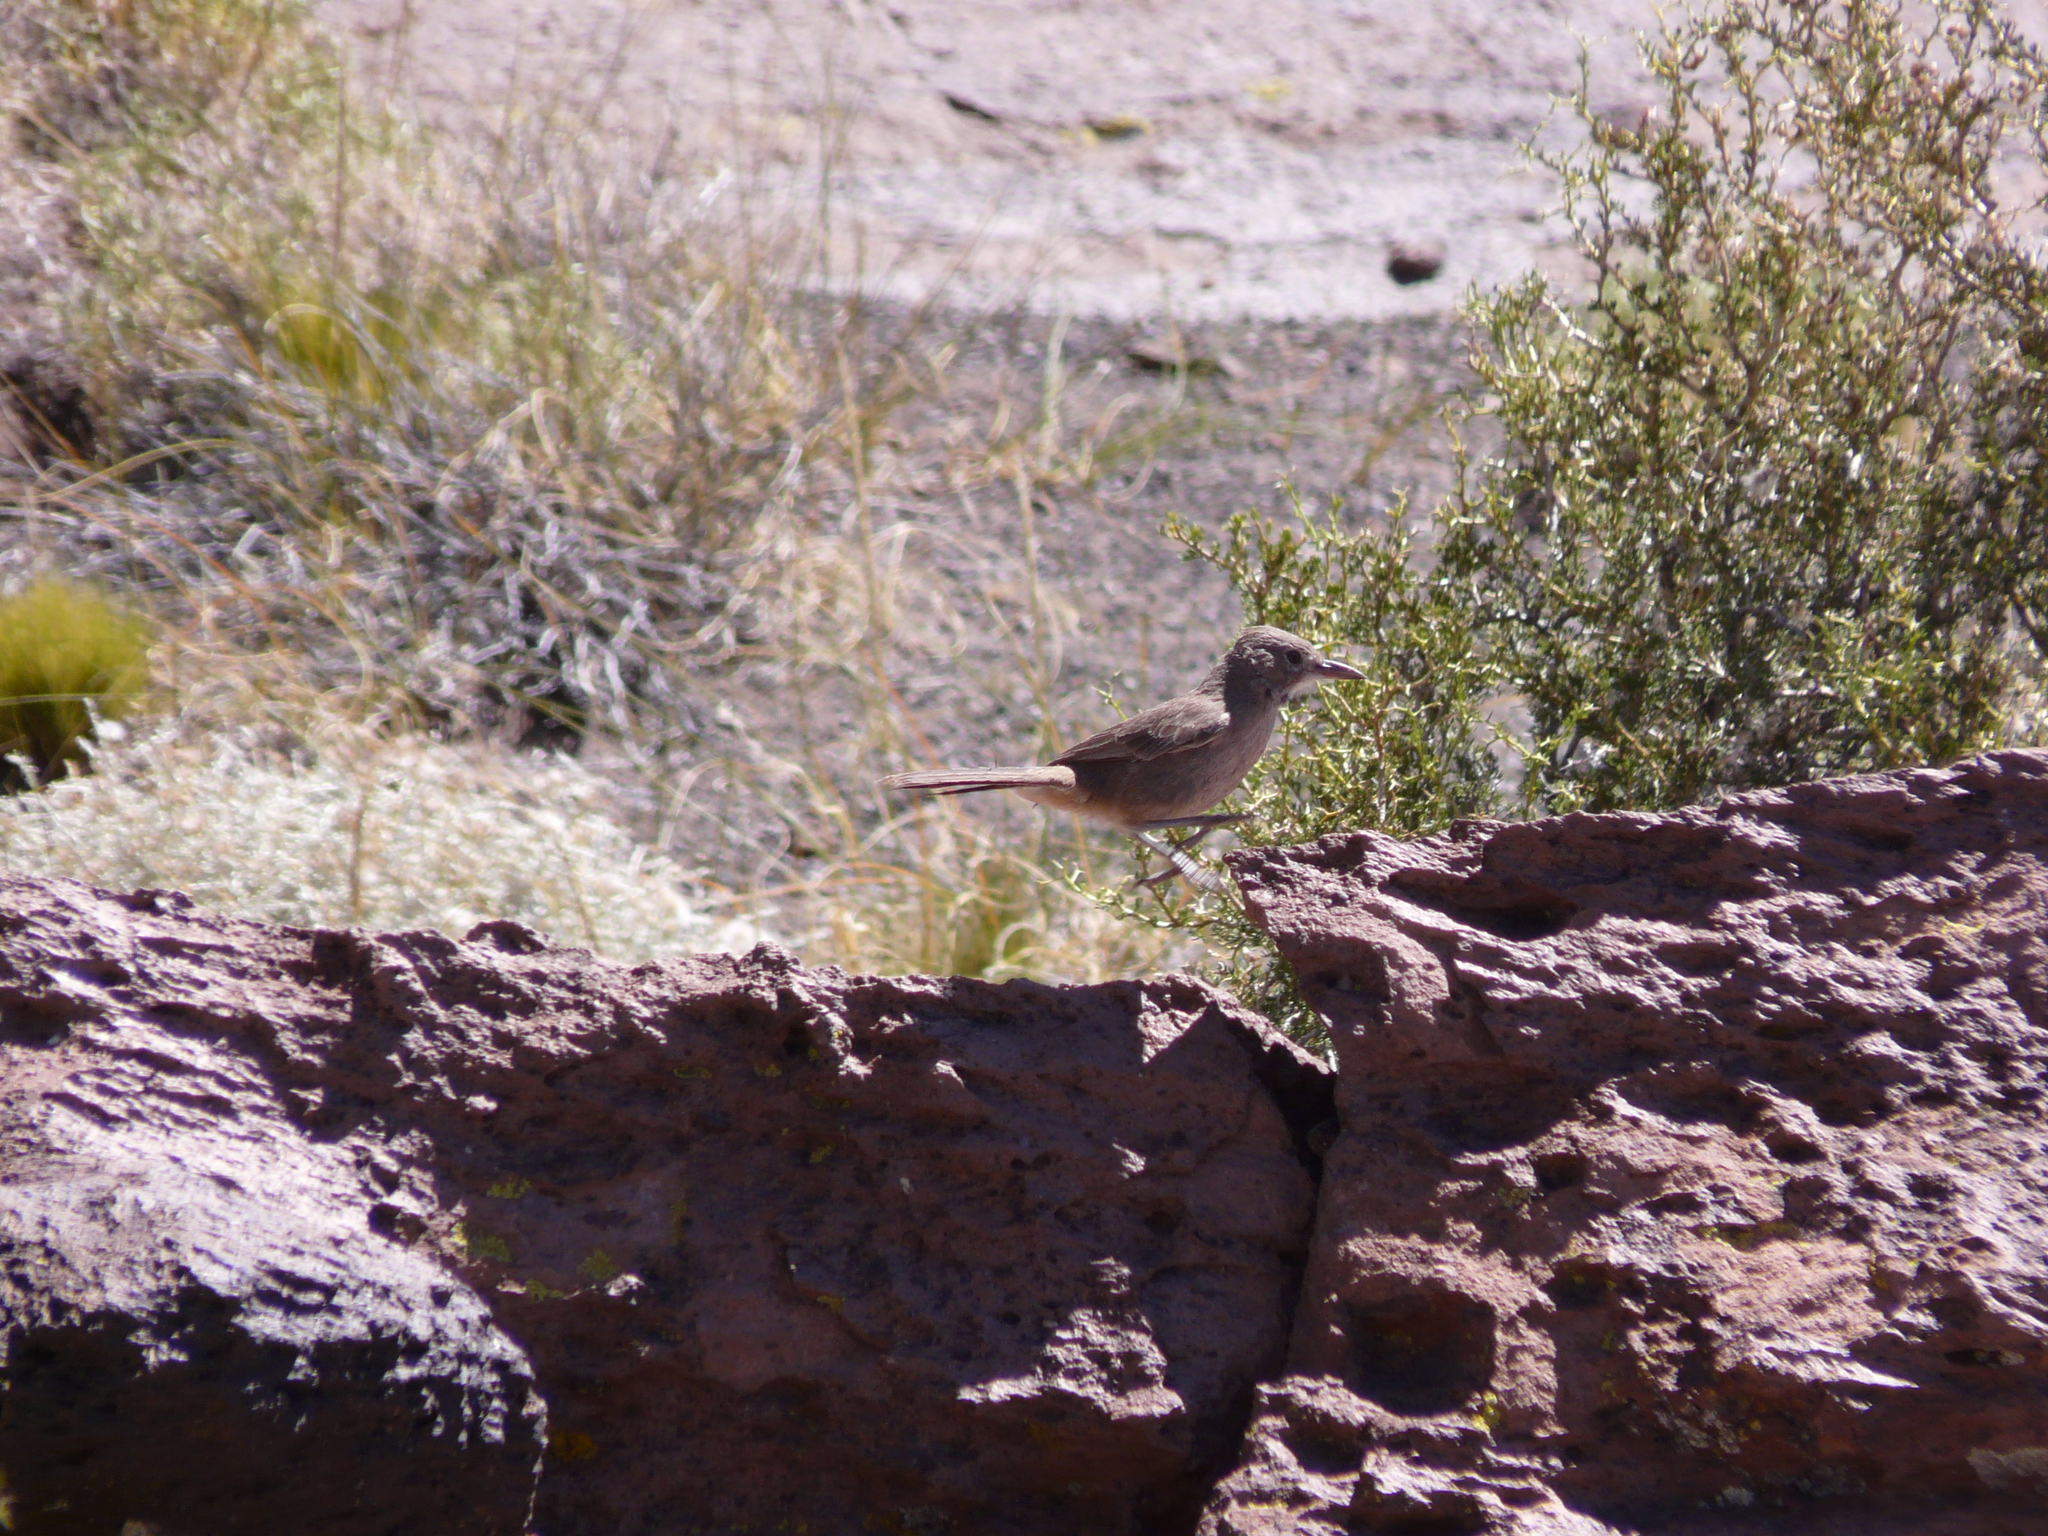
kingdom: Animalia
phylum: Chordata
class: Aves
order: Passeriformes
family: Furnariidae
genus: Pseudoseisura
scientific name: Pseudoseisura gutturalis
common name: White-throated cacholote
